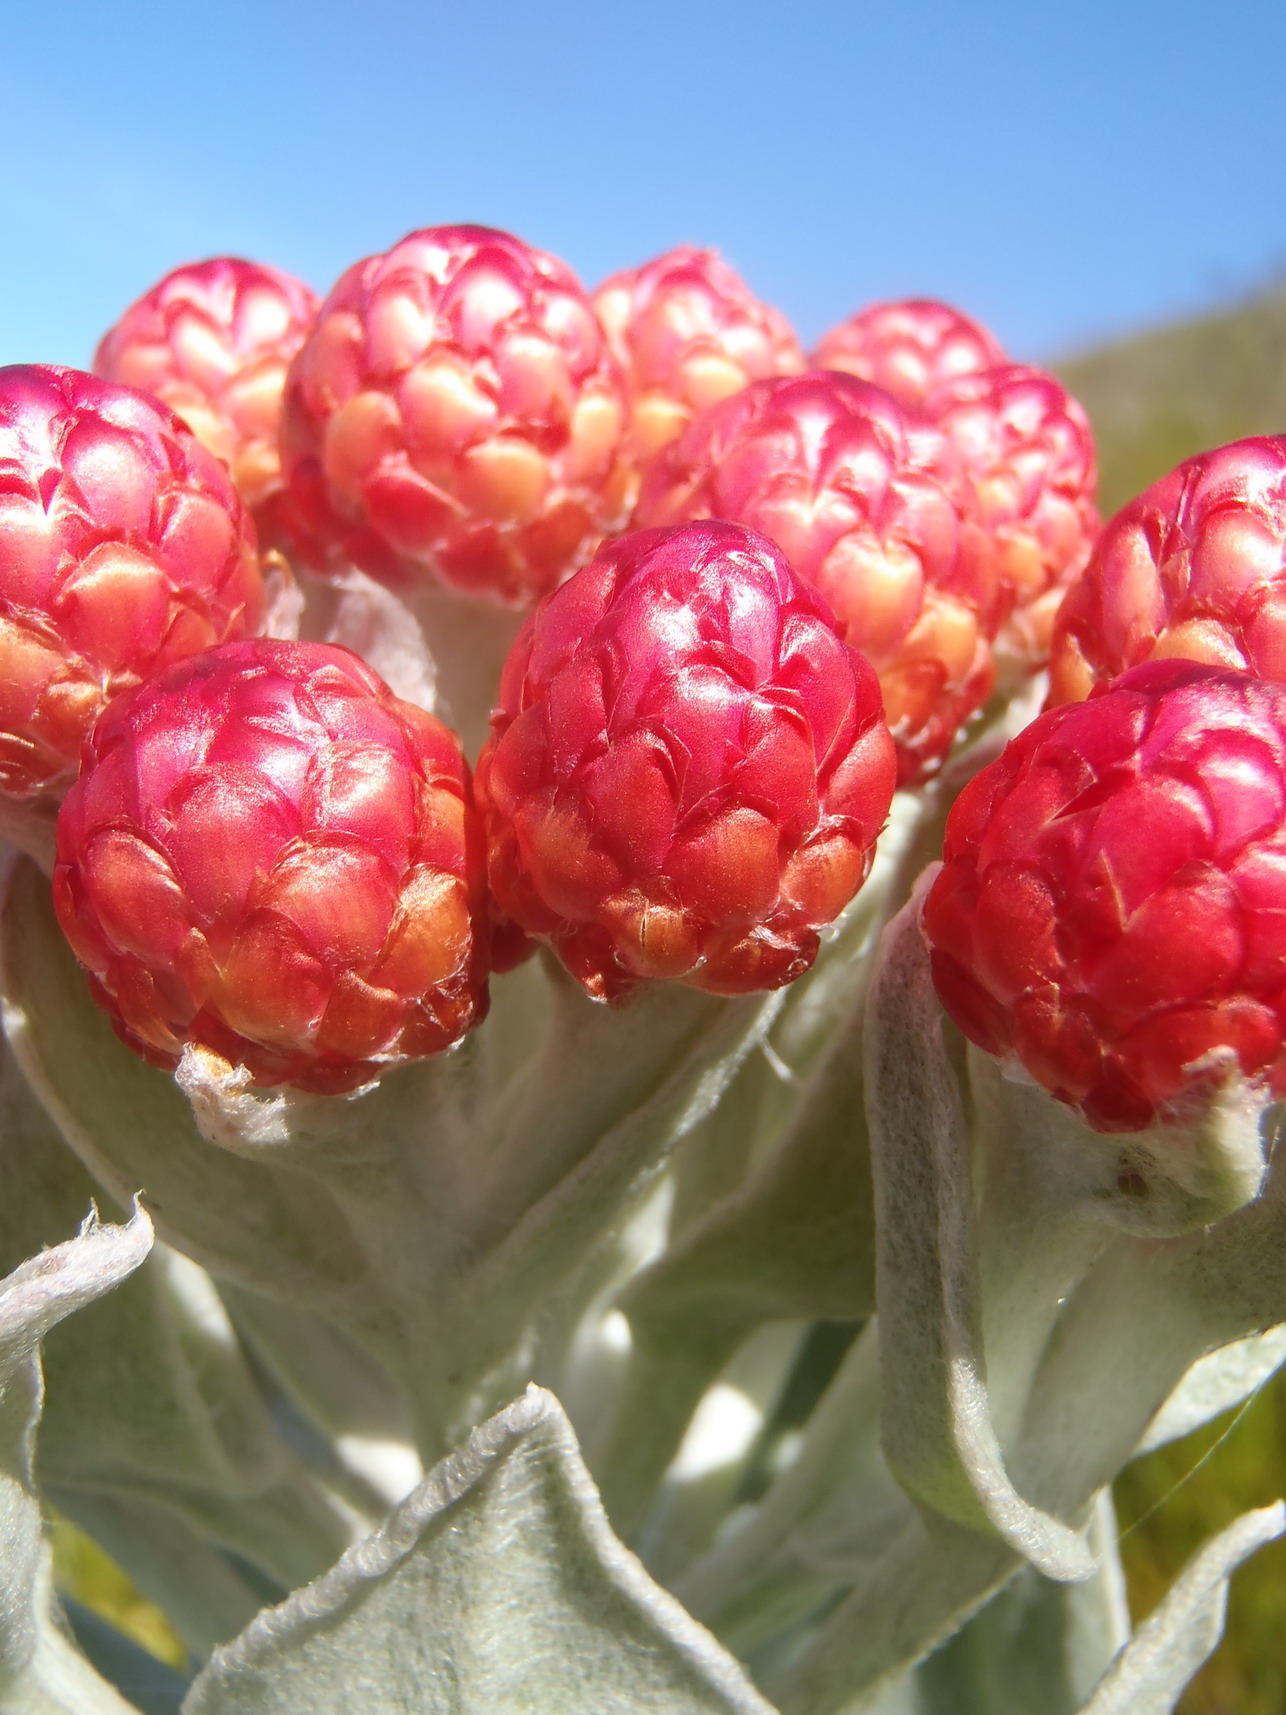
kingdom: Plantae
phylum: Tracheophyta
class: Magnoliopsida
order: Asterales
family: Asteraceae
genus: Syncarpha
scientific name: Syncarpha eximia
